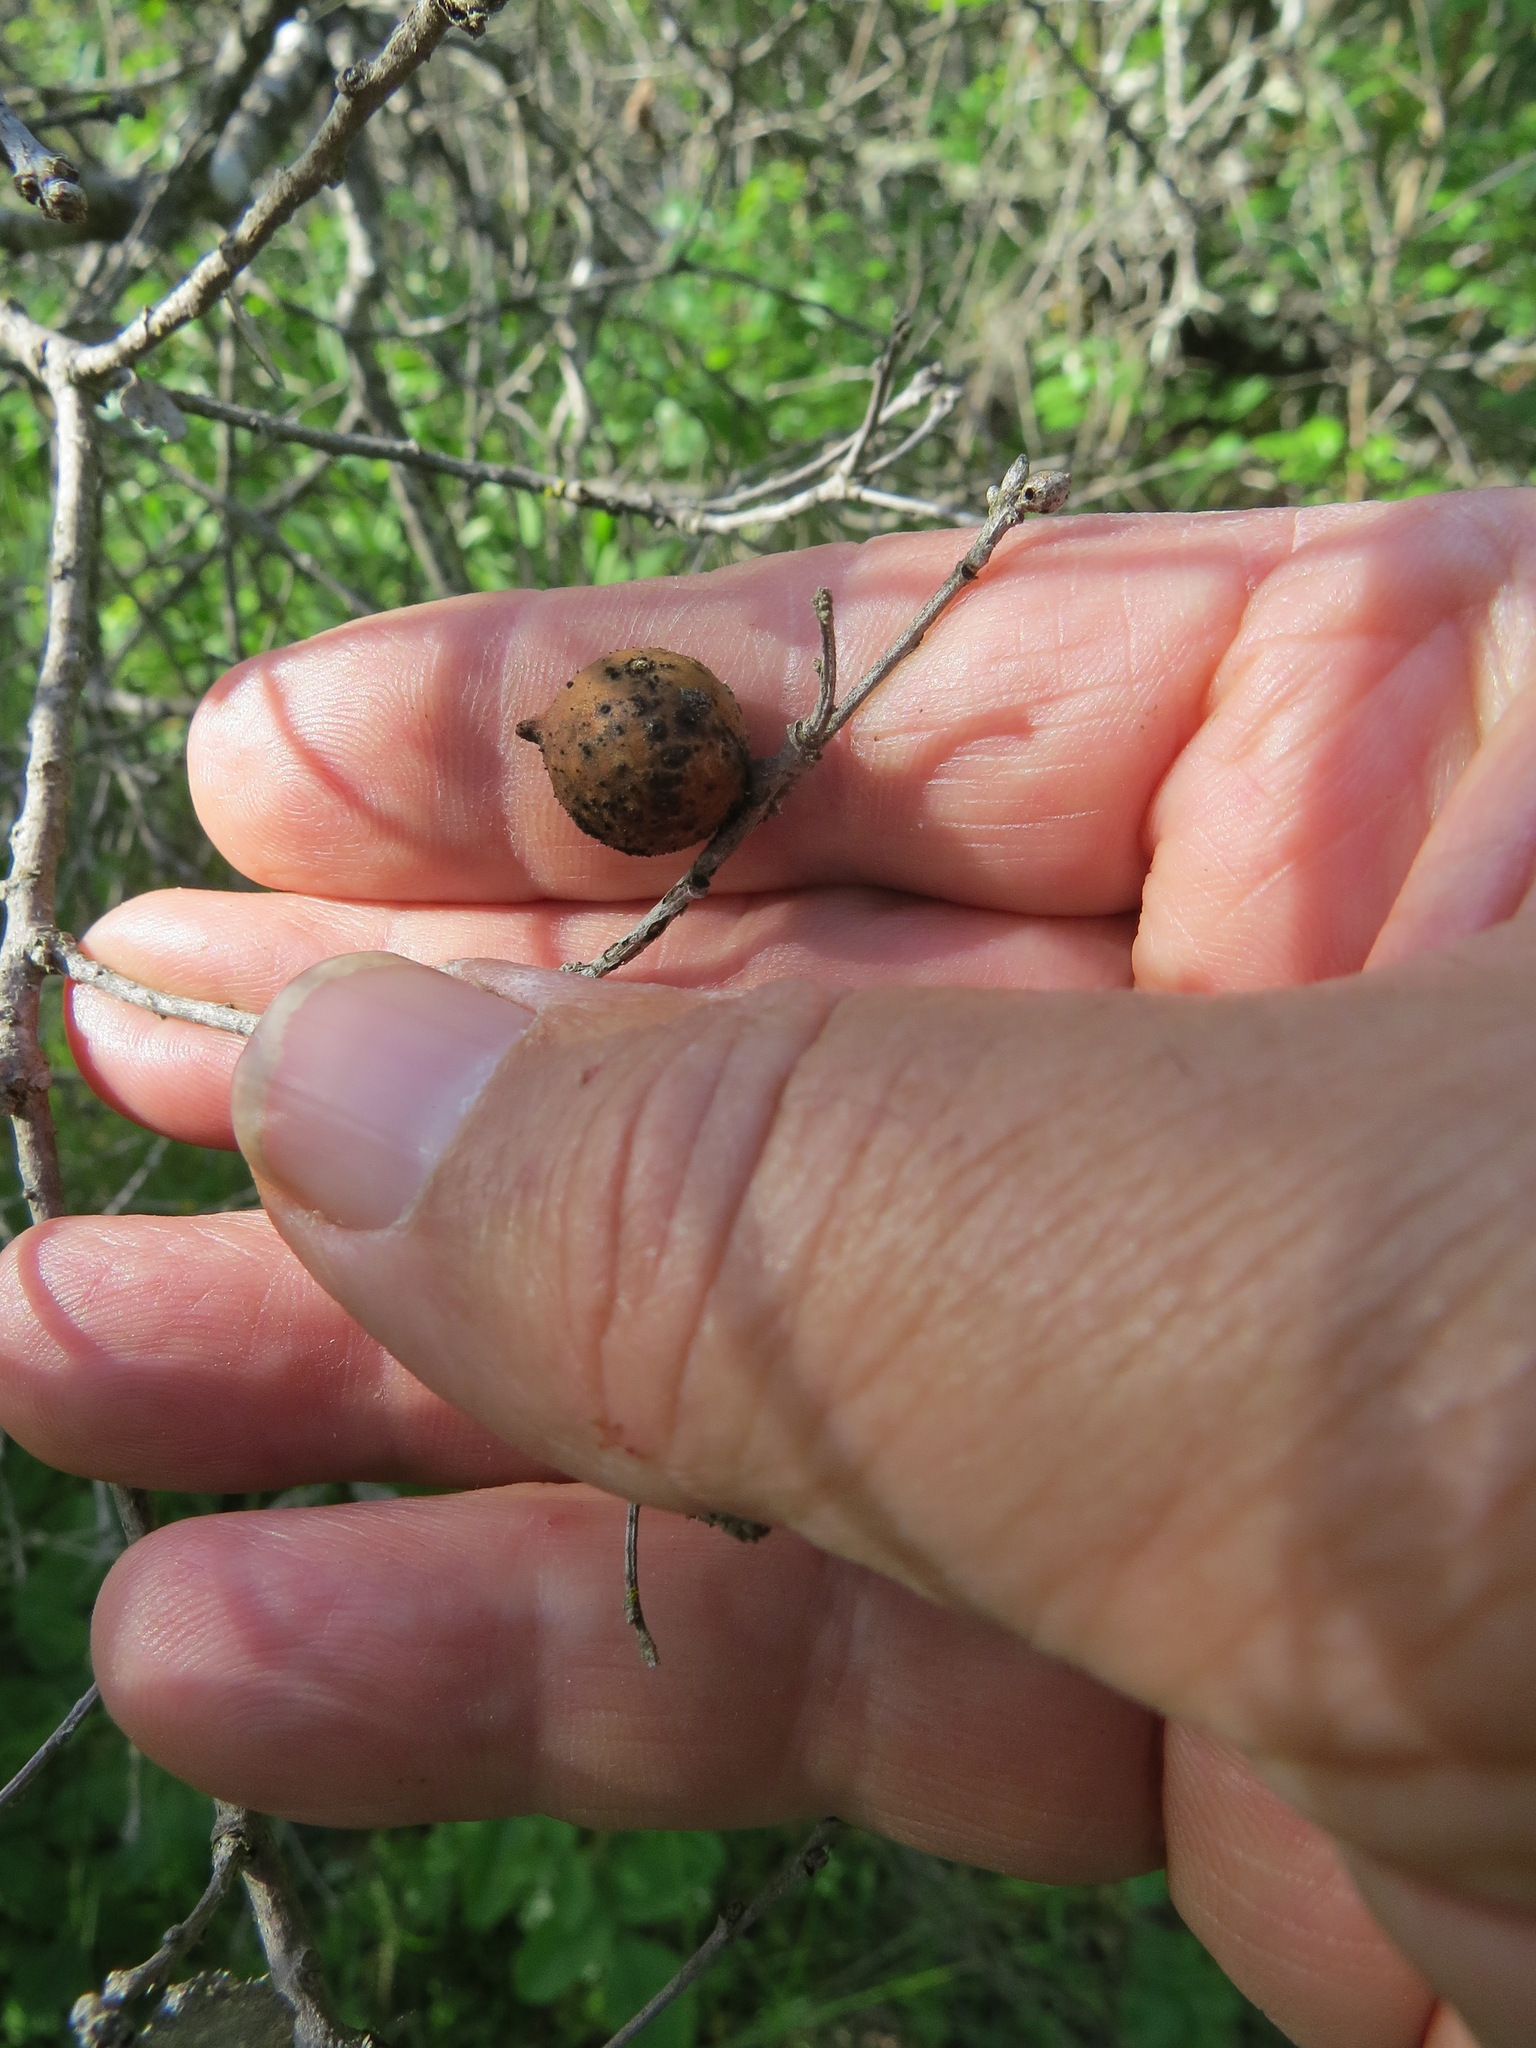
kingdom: Animalia
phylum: Arthropoda
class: Insecta
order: Hymenoptera
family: Cynipidae
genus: Burnettweldia
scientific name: Burnettweldia
